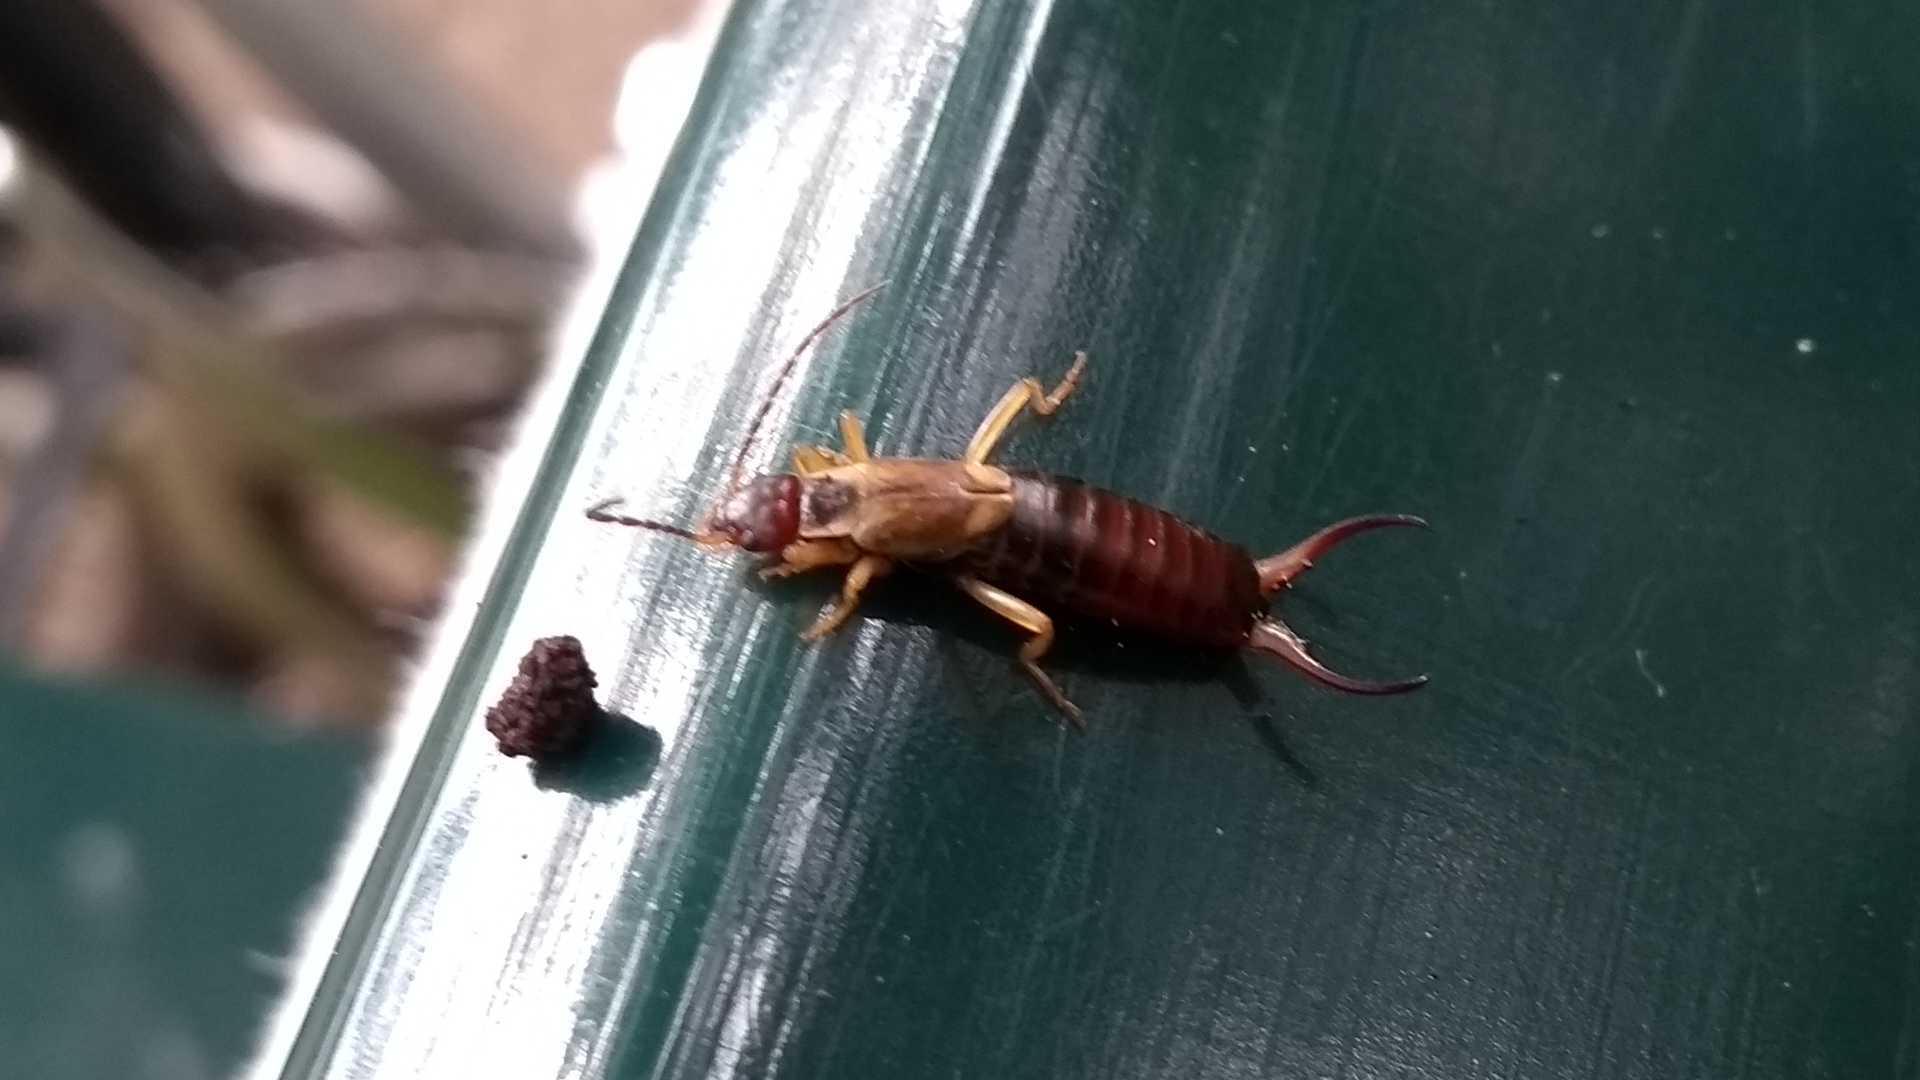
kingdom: Animalia
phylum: Arthropoda
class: Insecta
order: Dermaptera
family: Forficulidae
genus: Forficula
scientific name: Forficula
